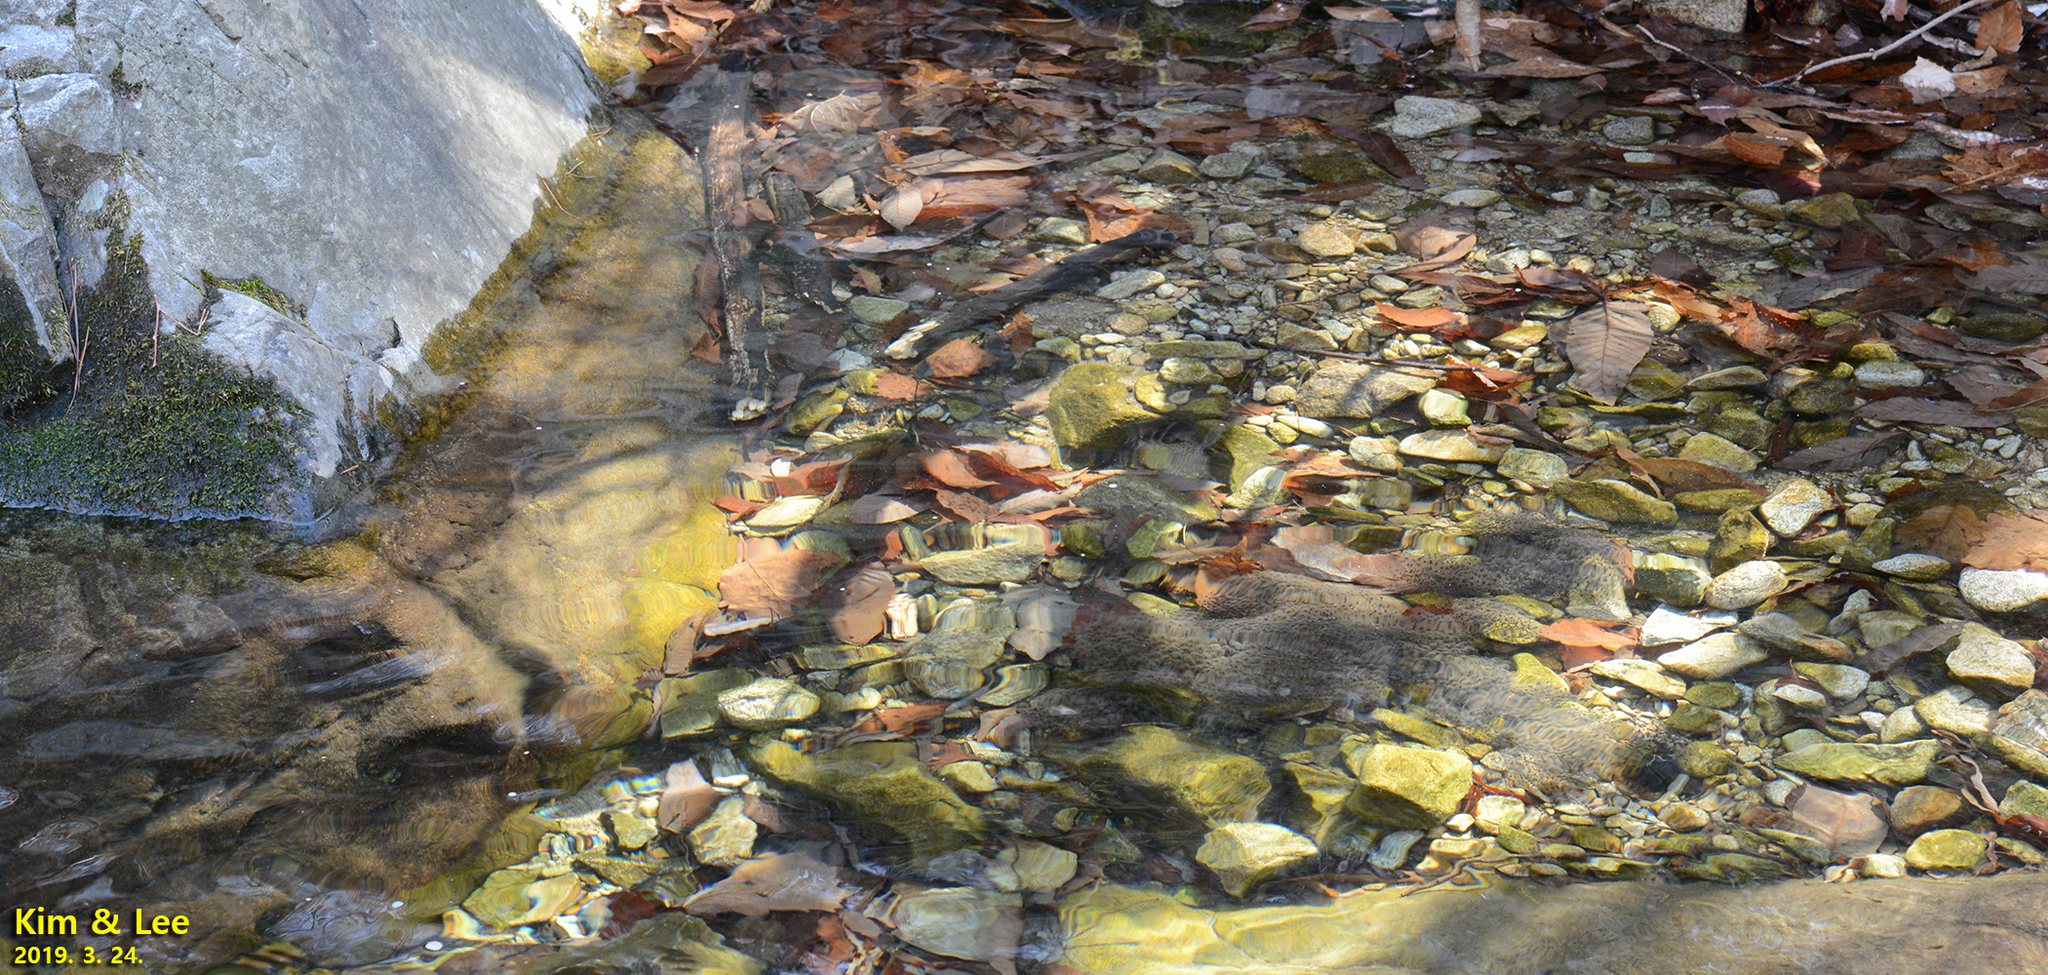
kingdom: Animalia
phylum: Chordata
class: Amphibia
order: Anura
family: Ranidae
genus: Rana
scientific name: Rana huanrenensis
